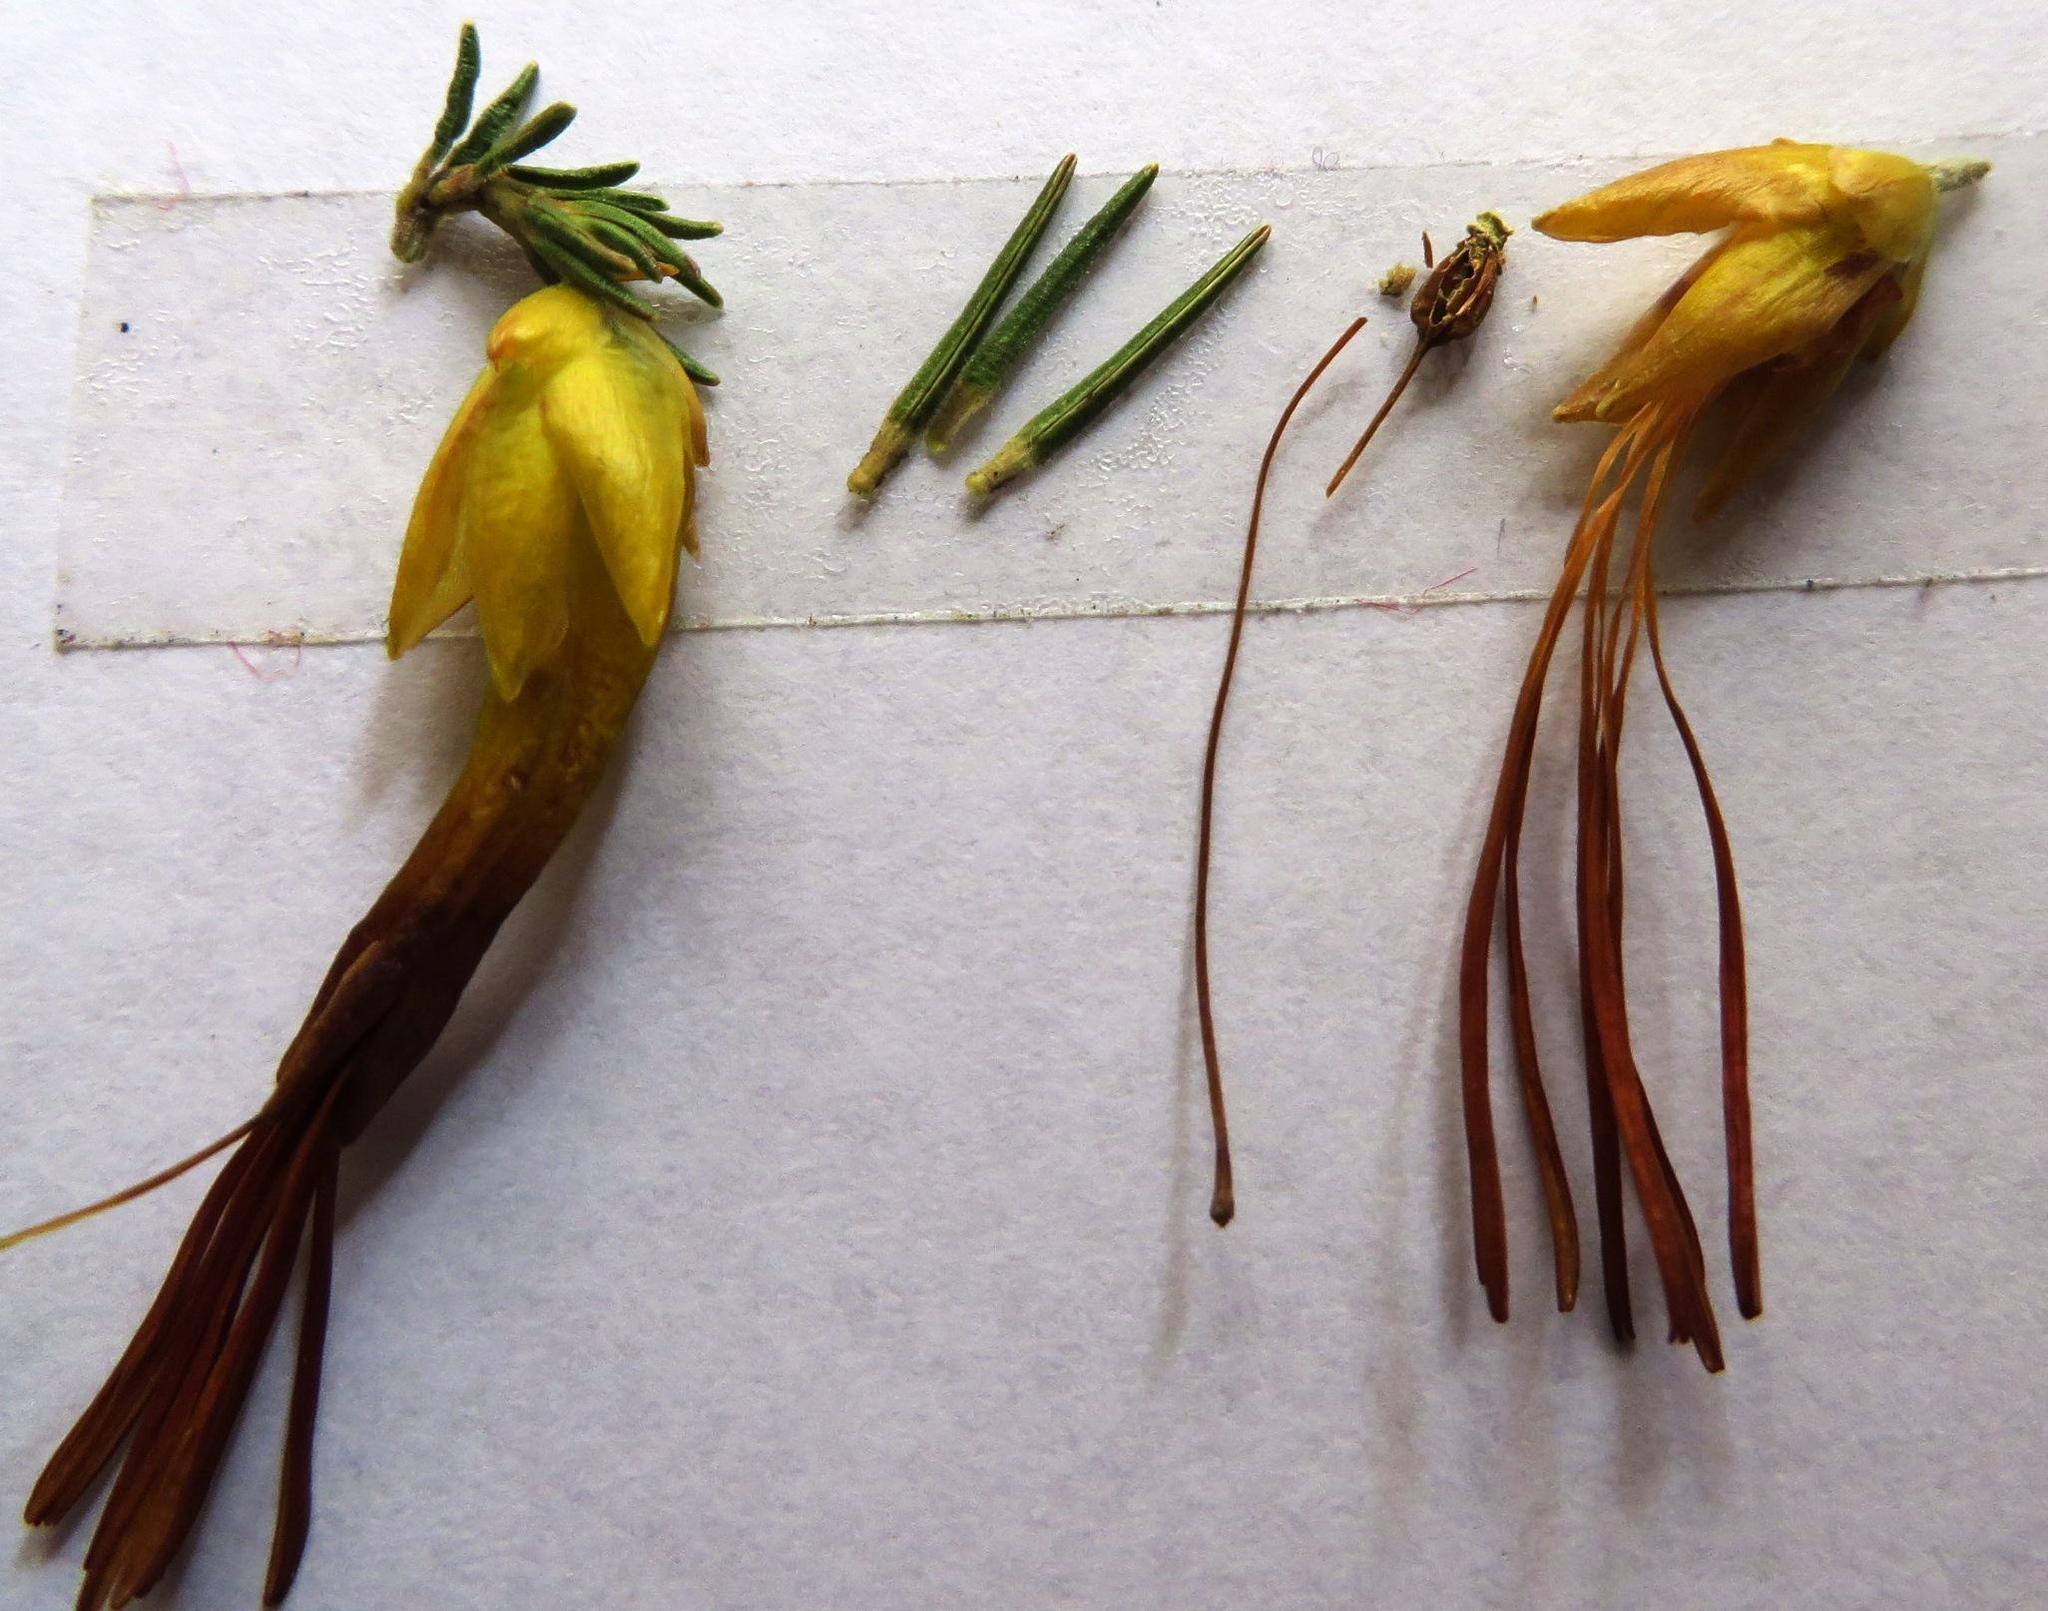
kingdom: Plantae
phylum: Tracheophyta
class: Magnoliopsida
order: Ericales
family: Ericaceae
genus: Erica
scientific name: Erica melastoma
